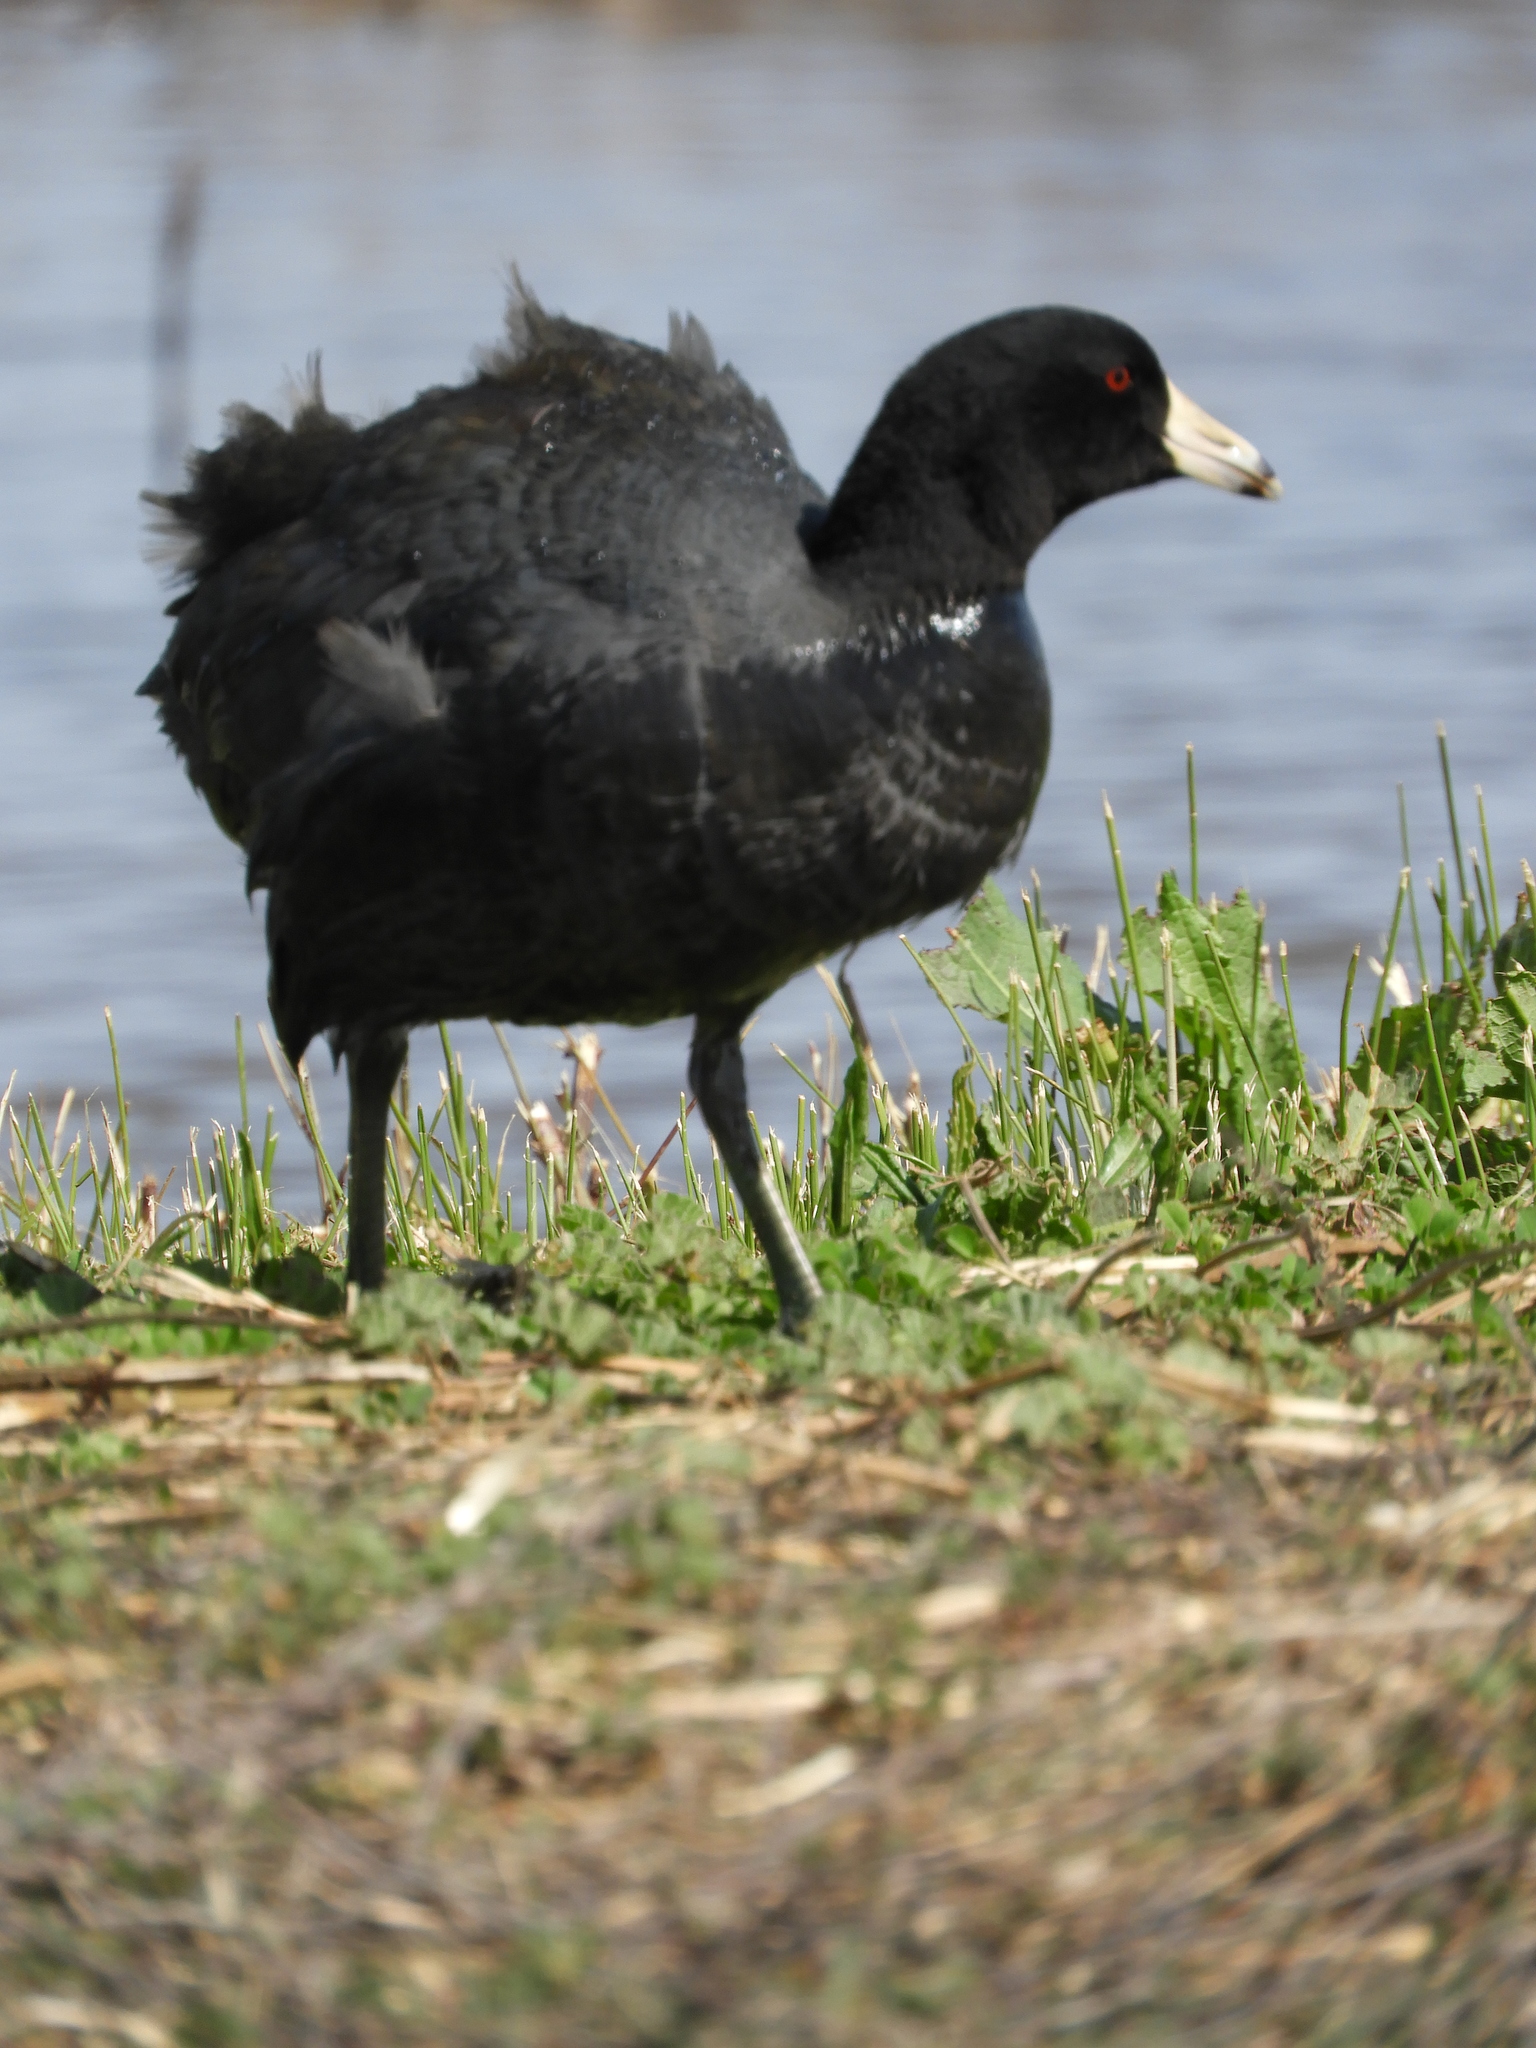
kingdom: Animalia
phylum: Chordata
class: Aves
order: Gruiformes
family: Rallidae
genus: Fulica
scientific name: Fulica americana
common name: American coot
